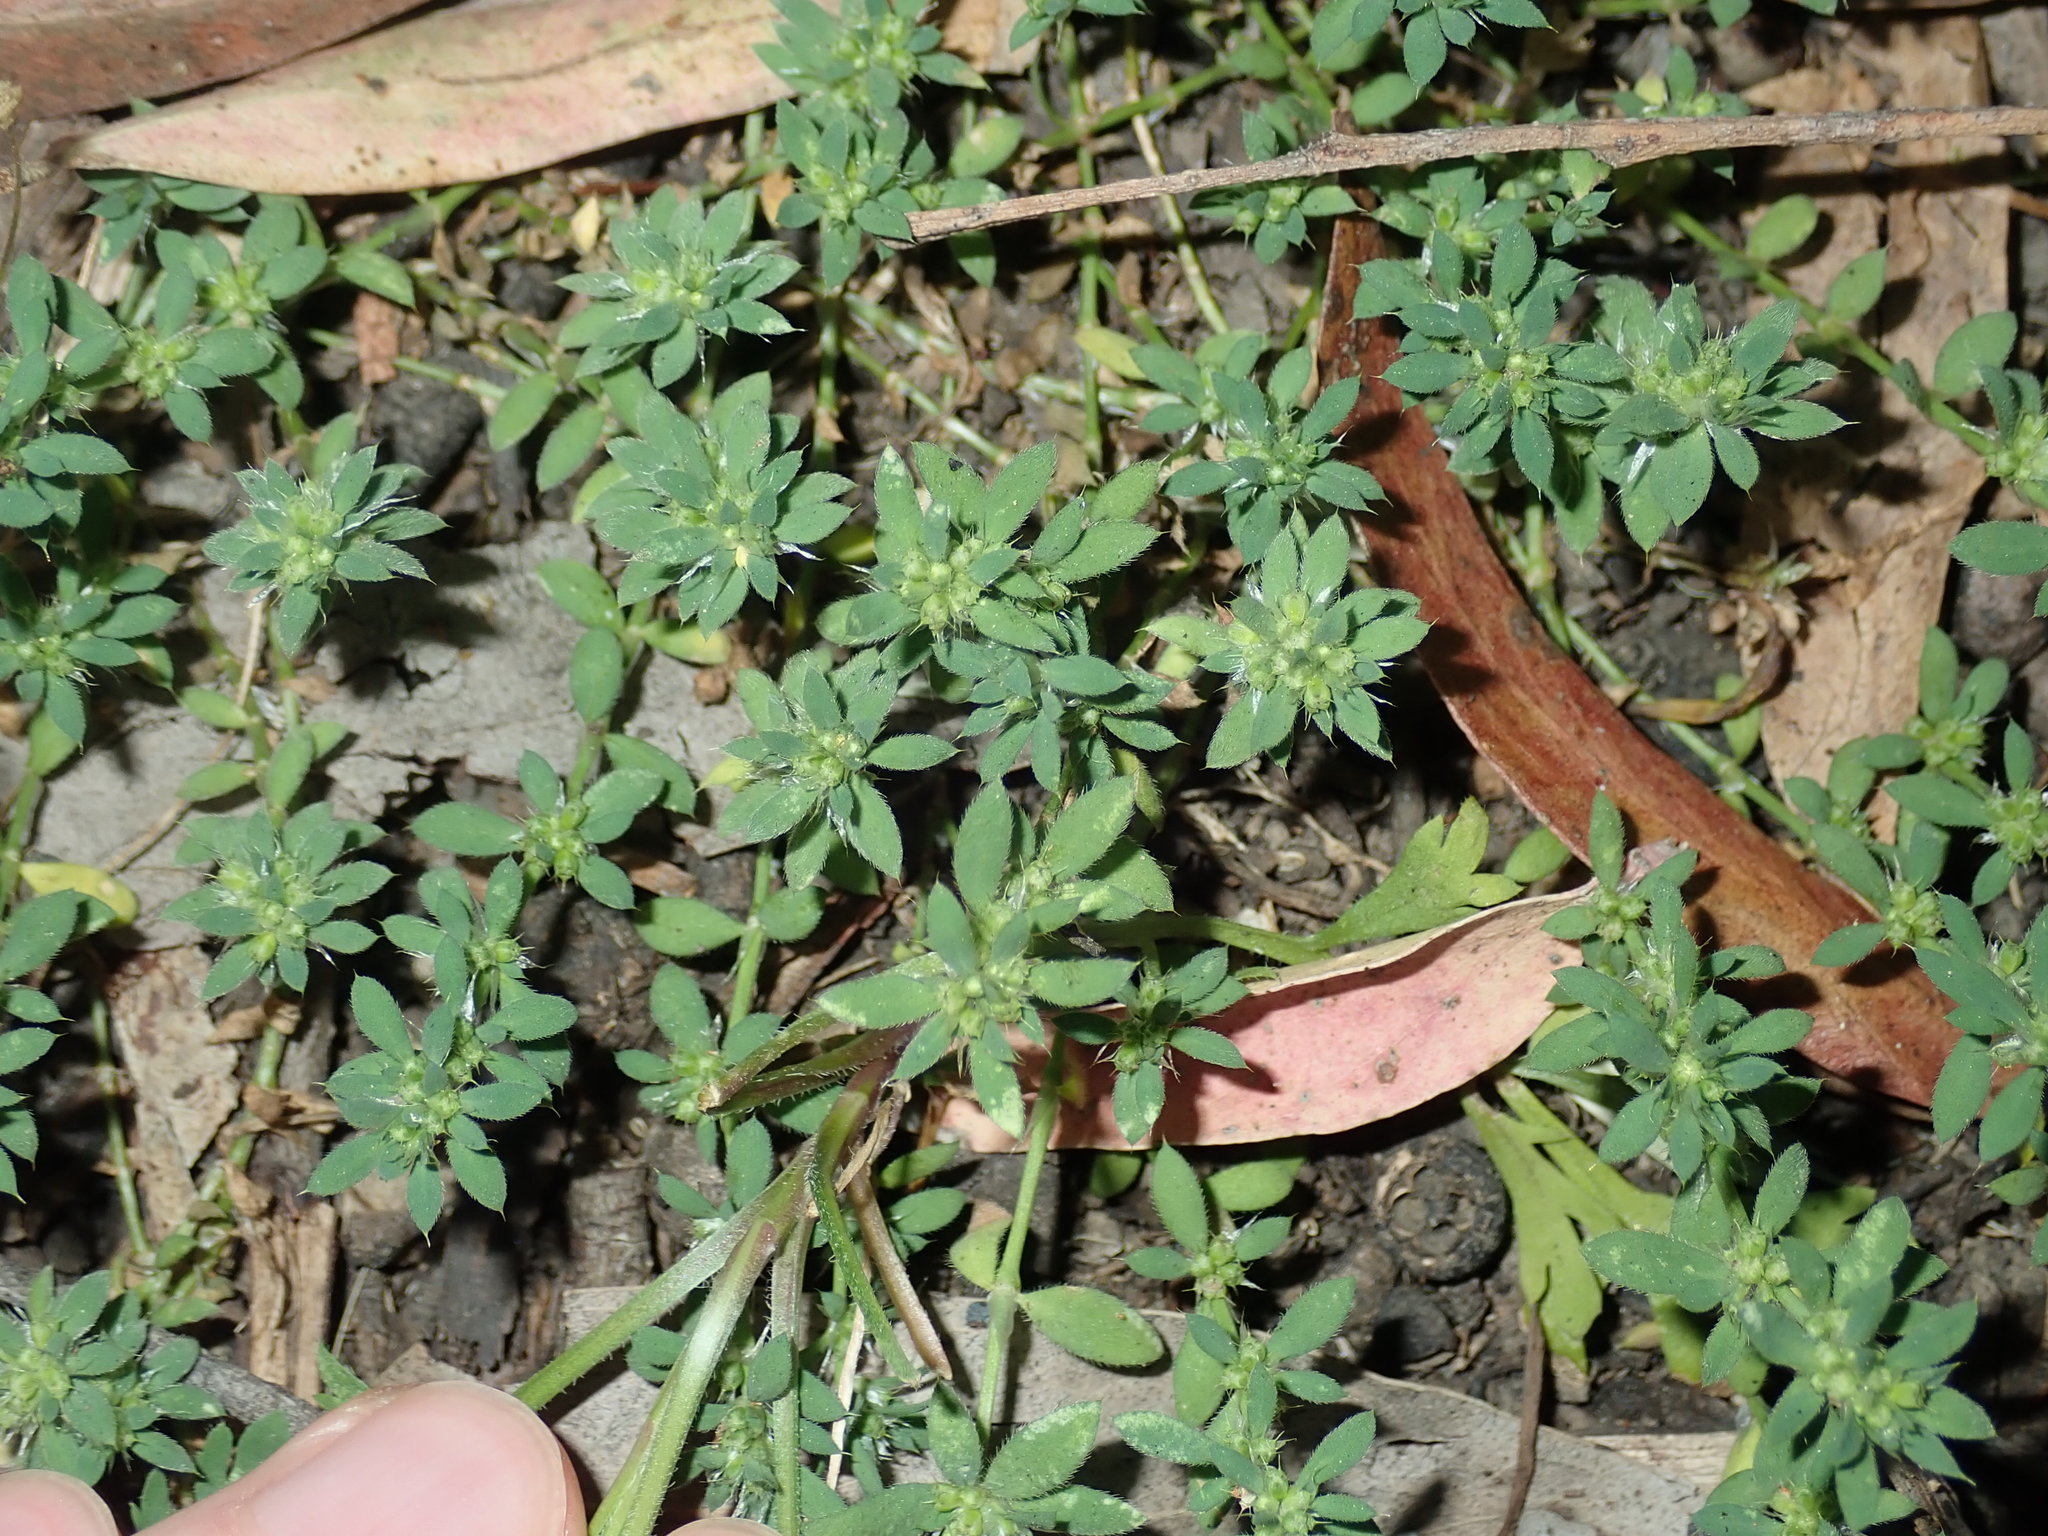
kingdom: Plantae
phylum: Tracheophyta
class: Magnoliopsida
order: Caryophyllales
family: Caryophyllaceae
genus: Paronychia
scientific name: Paronychia brasiliana
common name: Brazilian whitlow
